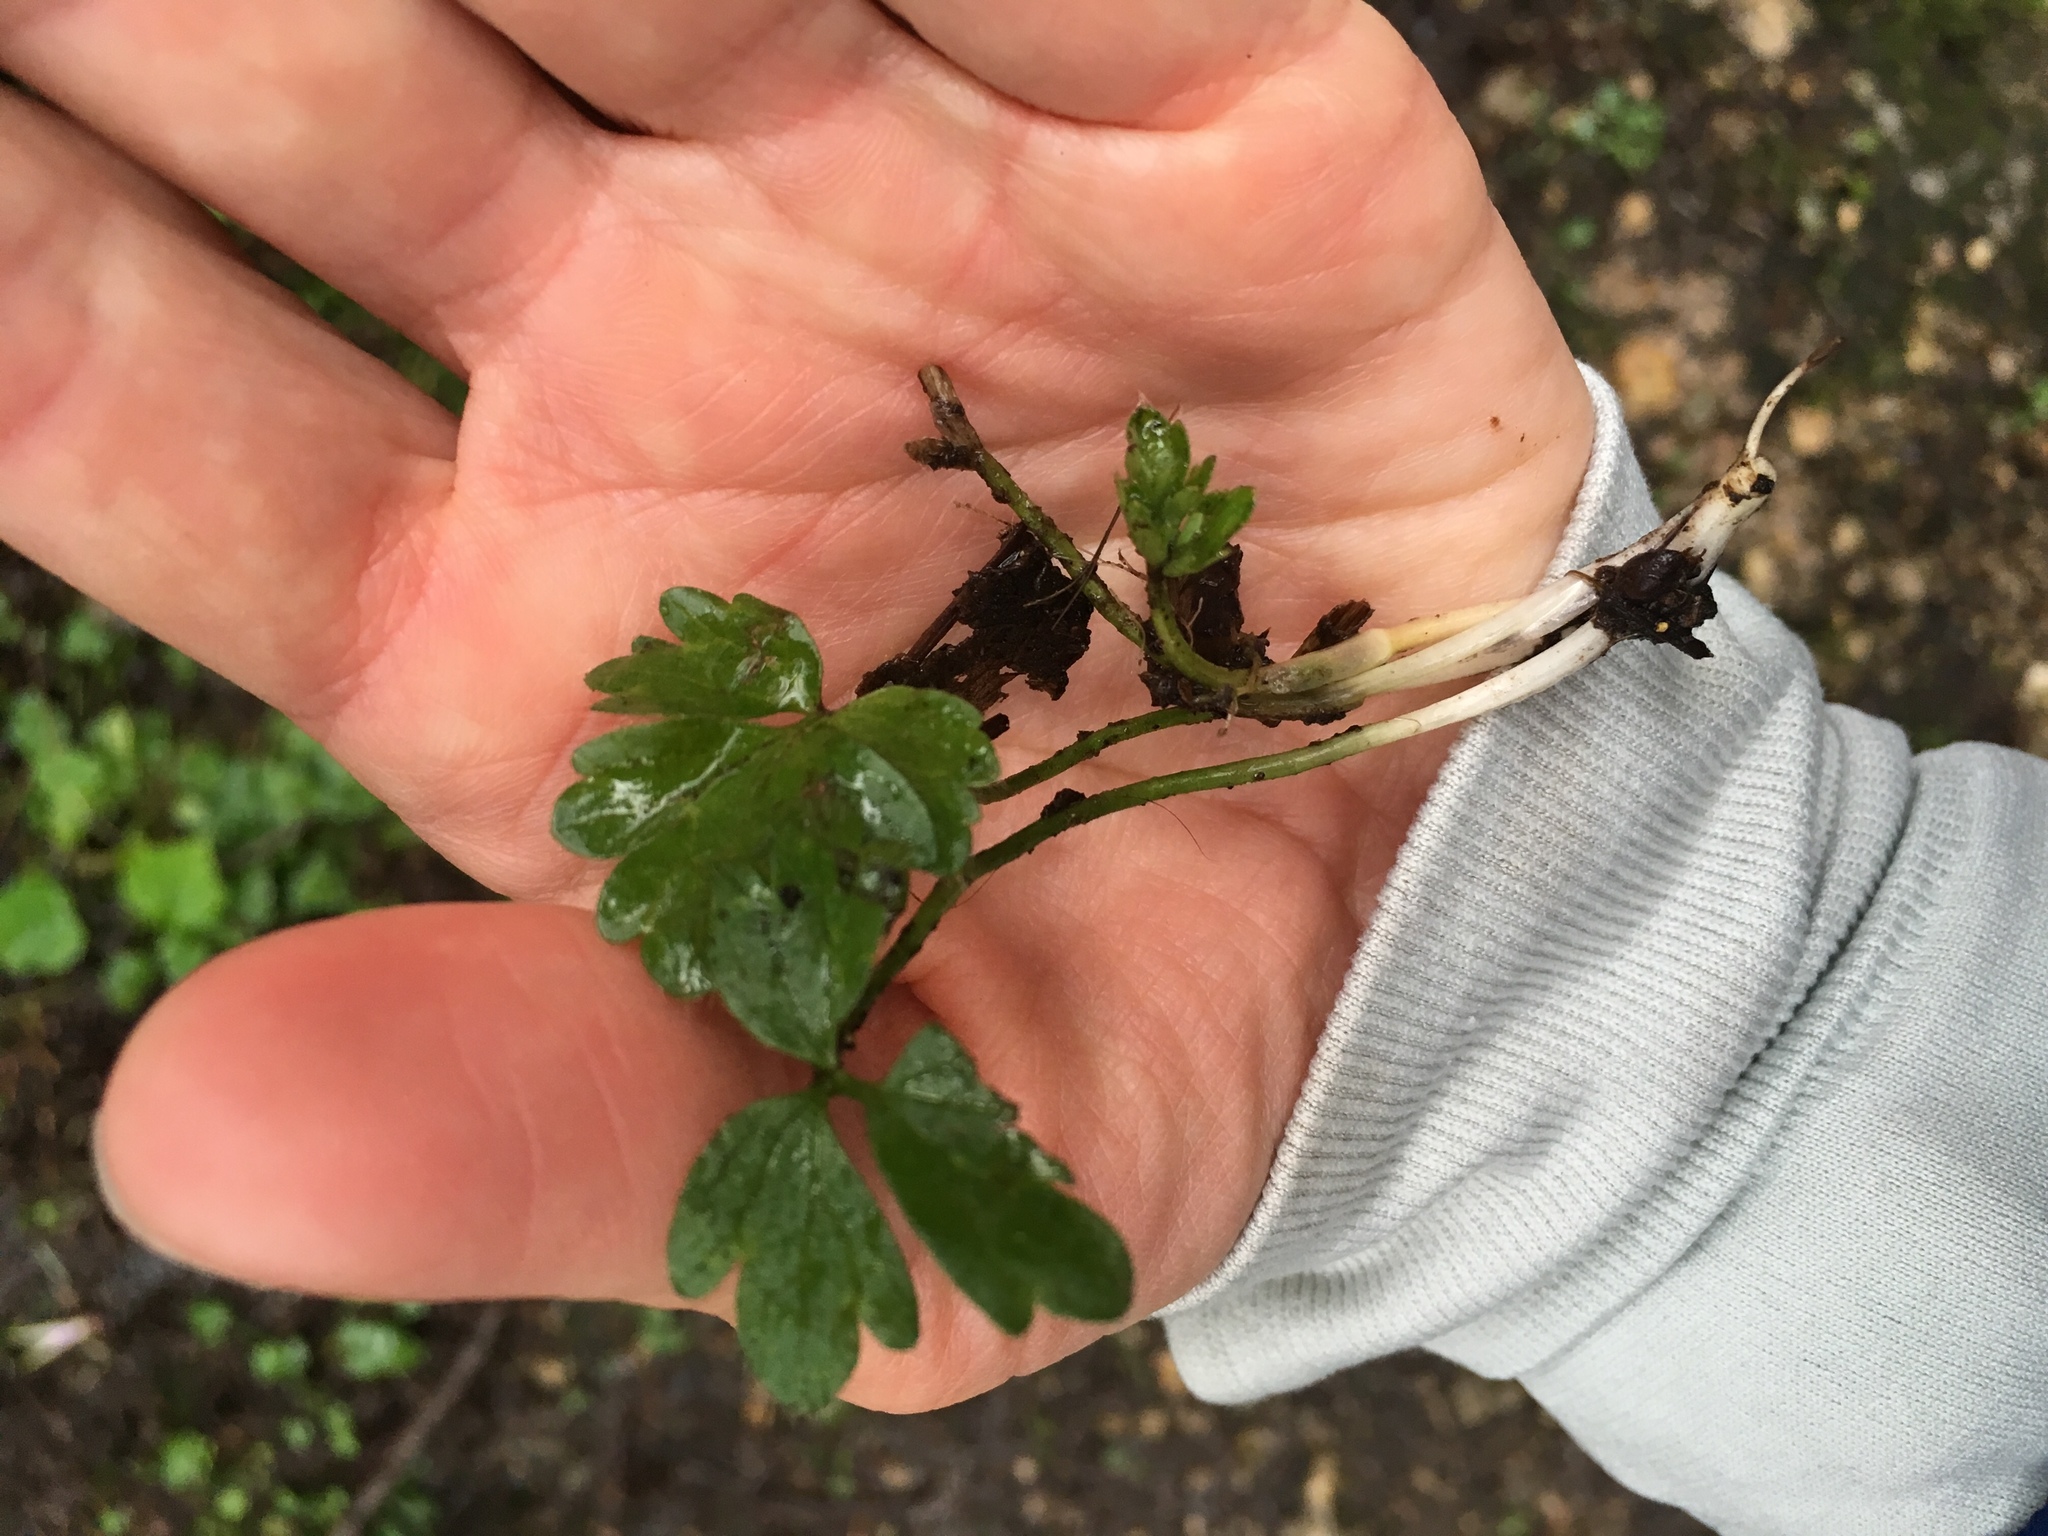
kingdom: Plantae
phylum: Tracheophyta
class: Magnoliopsida
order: Ranunculales
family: Ranunculaceae
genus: Ranunculus
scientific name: Ranunculus repens
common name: Creeping buttercup
